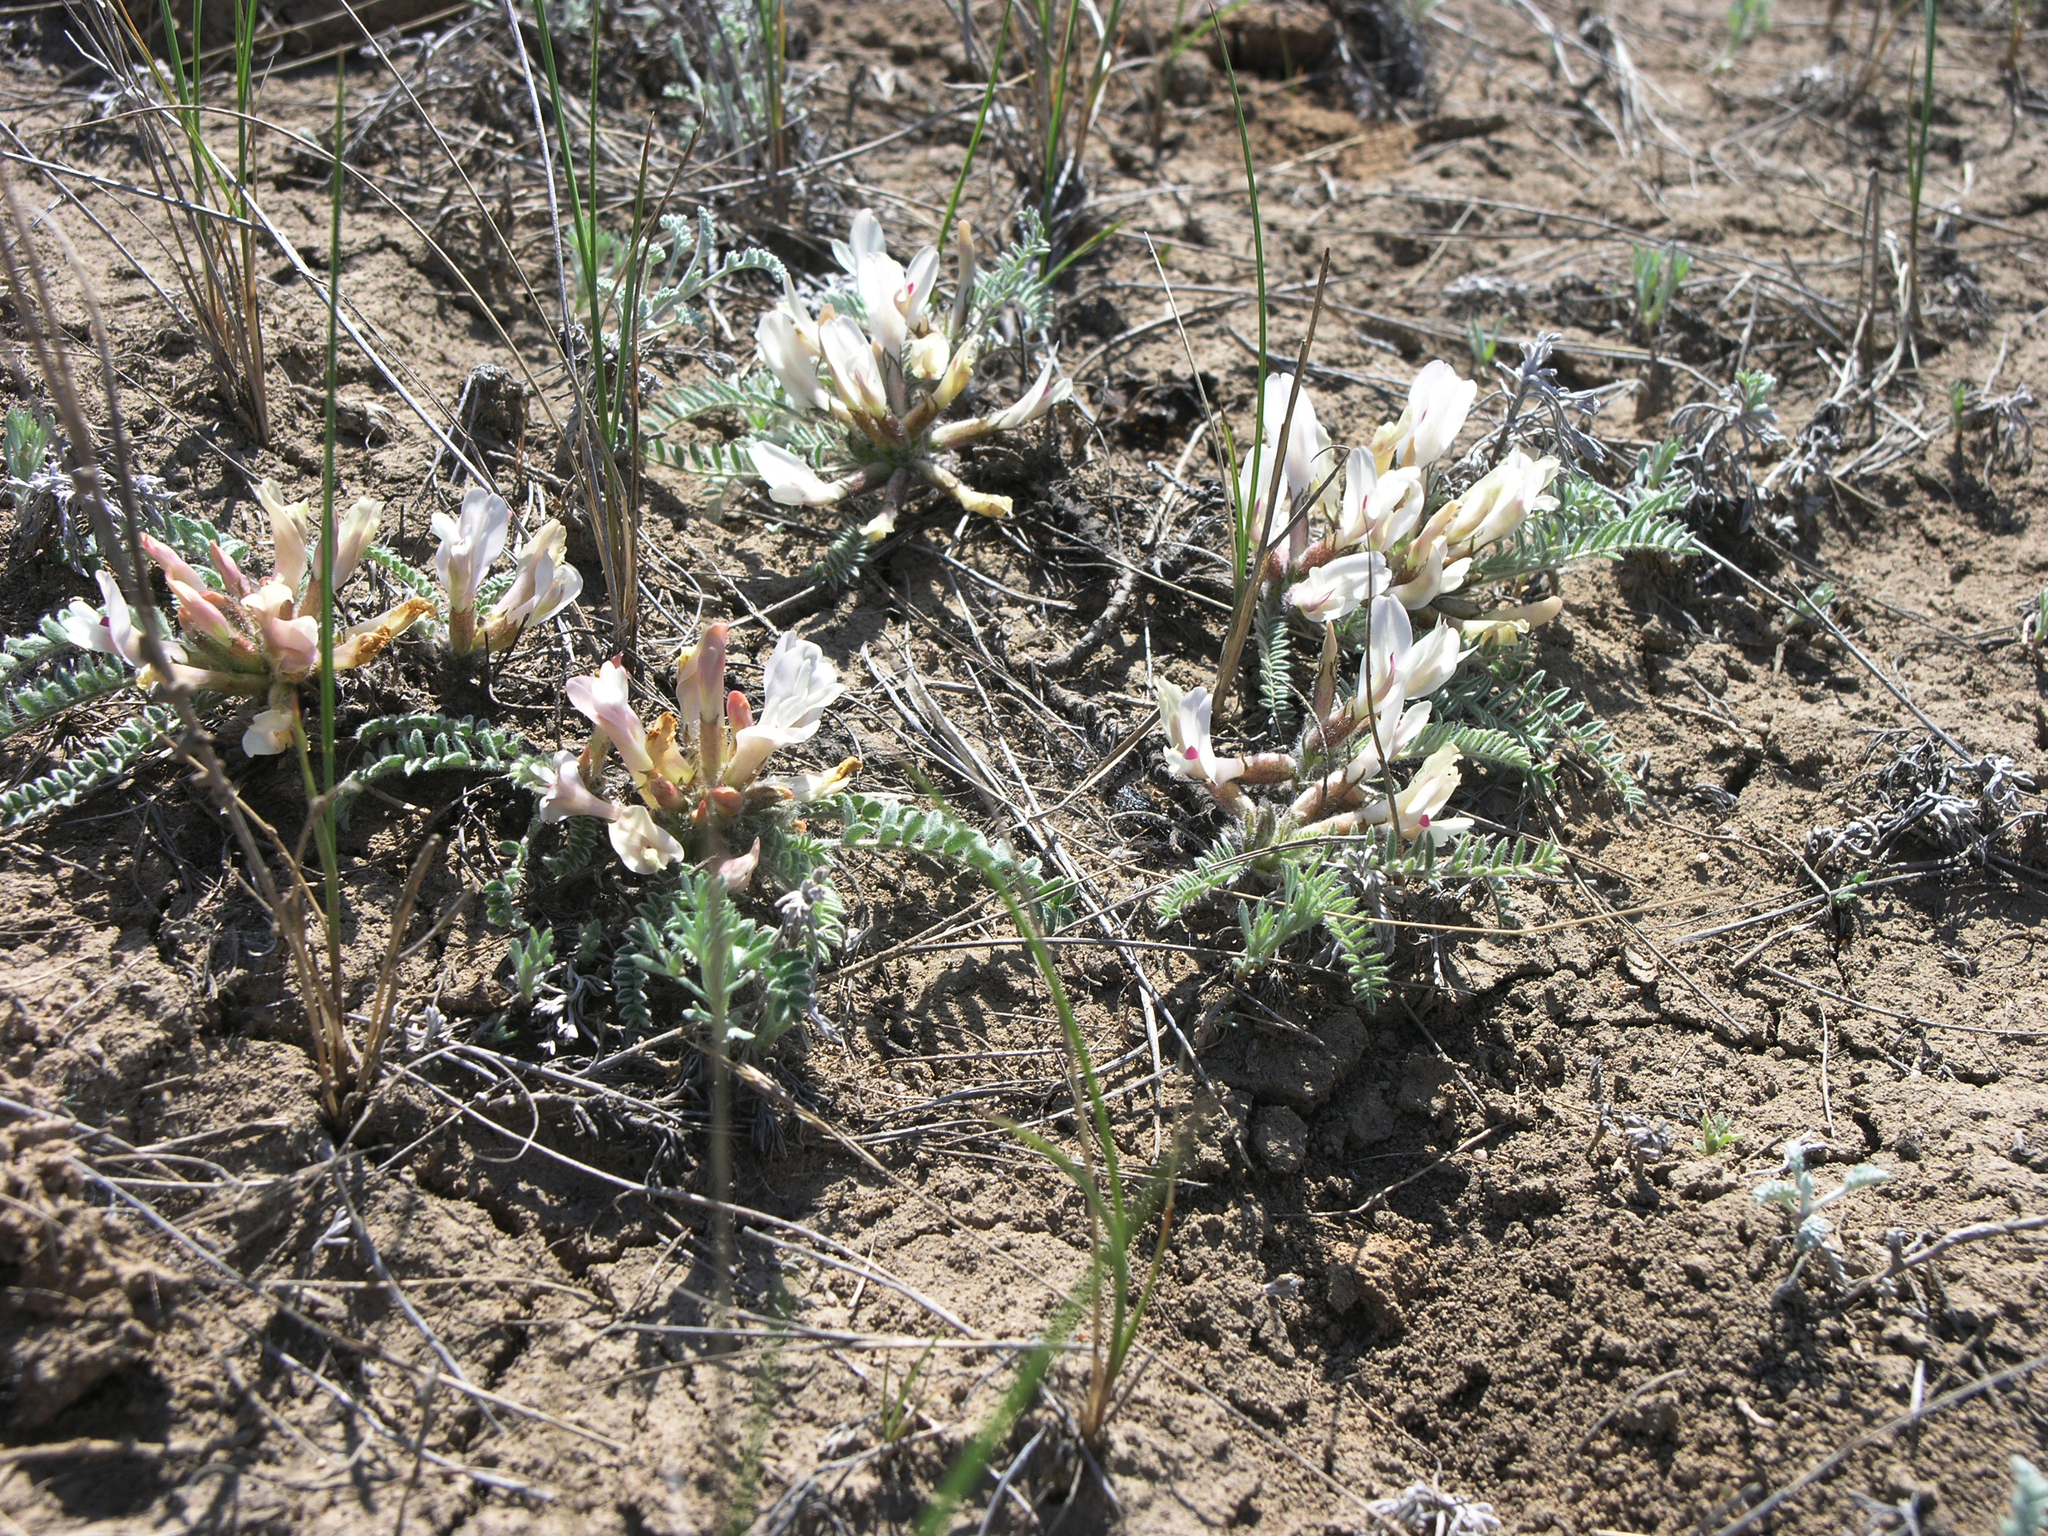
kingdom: Plantae
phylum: Tracheophyta
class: Magnoliopsida
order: Fabales
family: Fabaceae
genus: Astragalus
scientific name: Astragalus testiculatus
